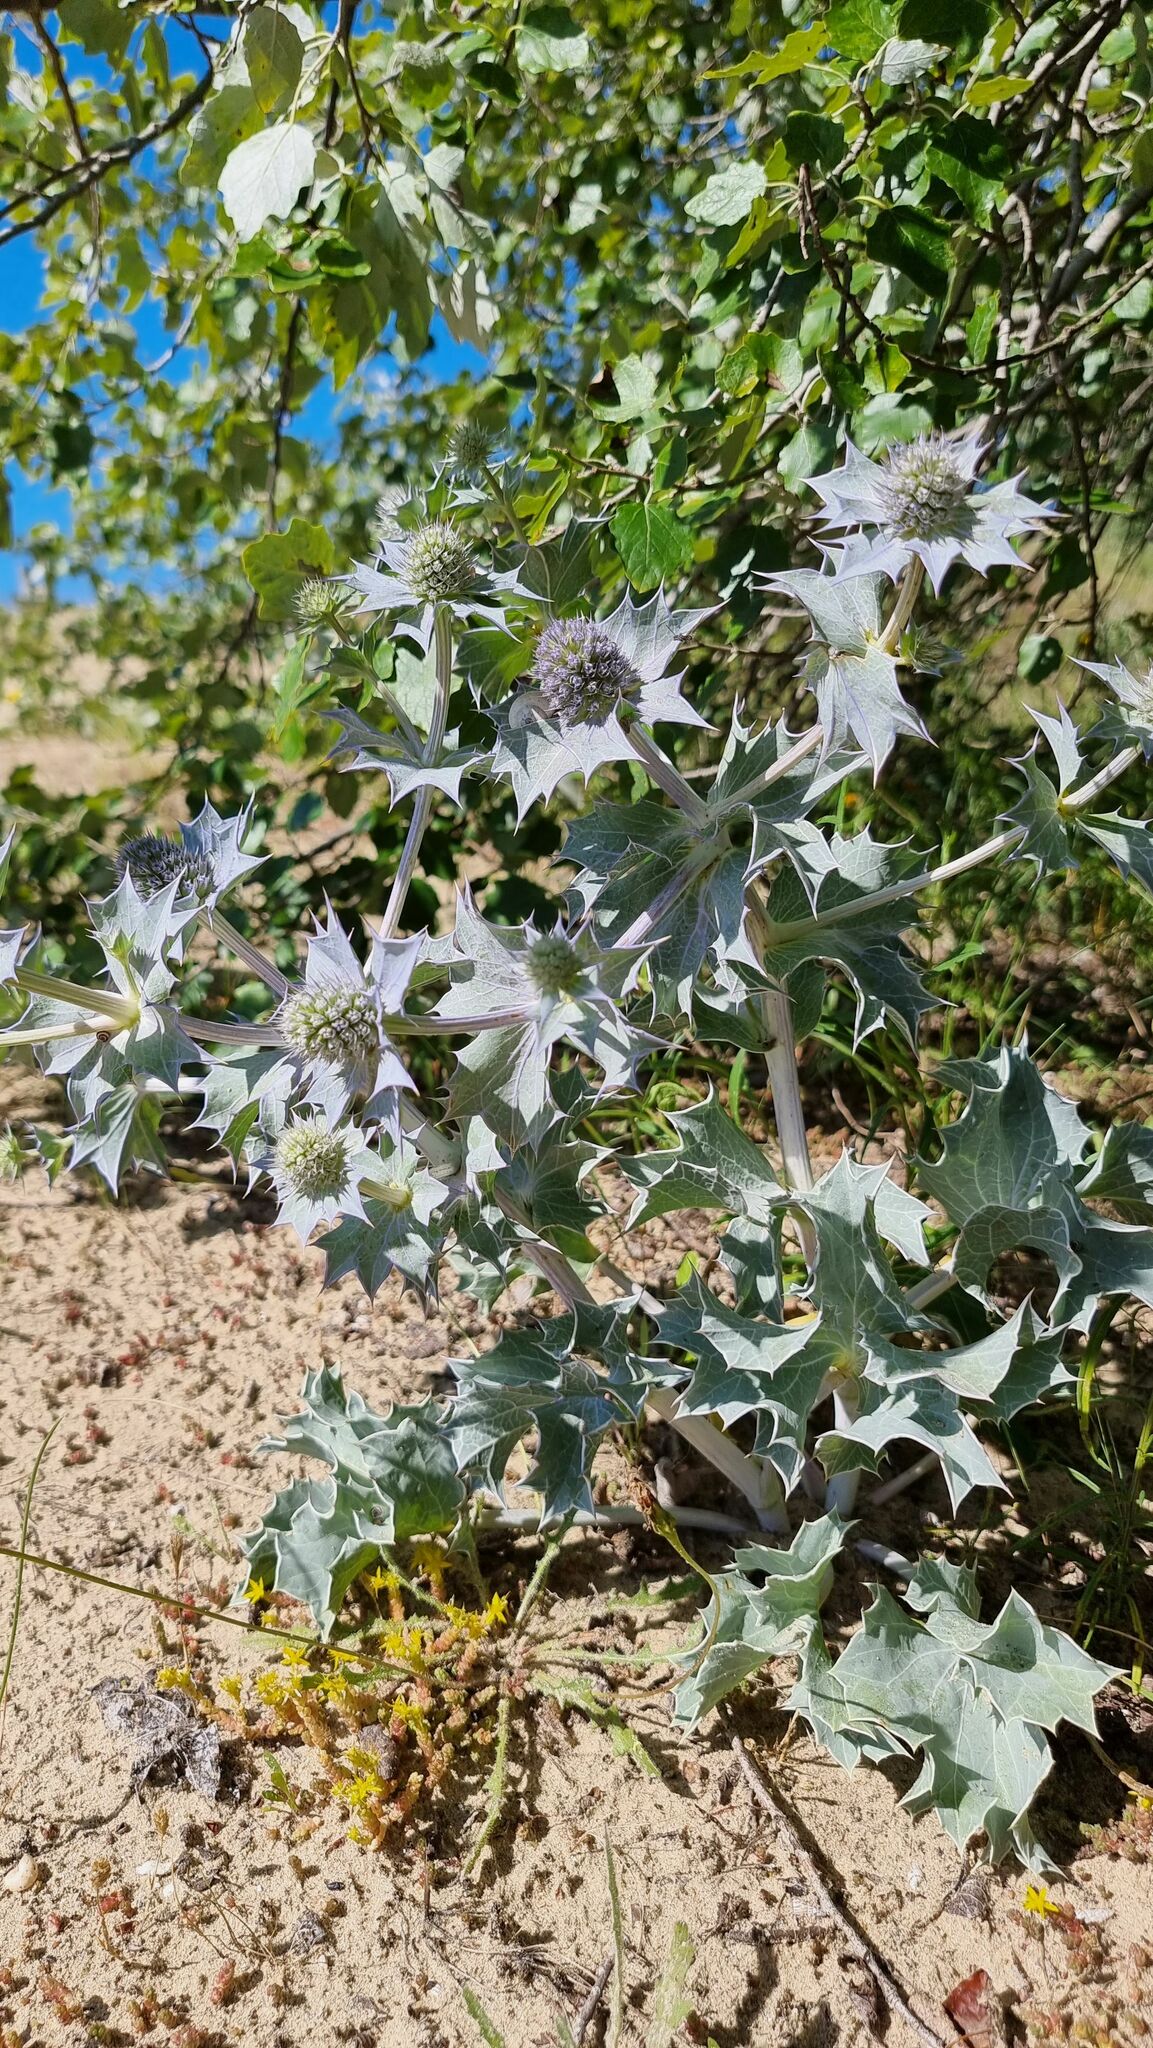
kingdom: Plantae
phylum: Tracheophyta
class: Magnoliopsida
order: Apiales
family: Apiaceae
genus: Eryngium
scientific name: Eryngium maritimum
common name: Sea-holly
